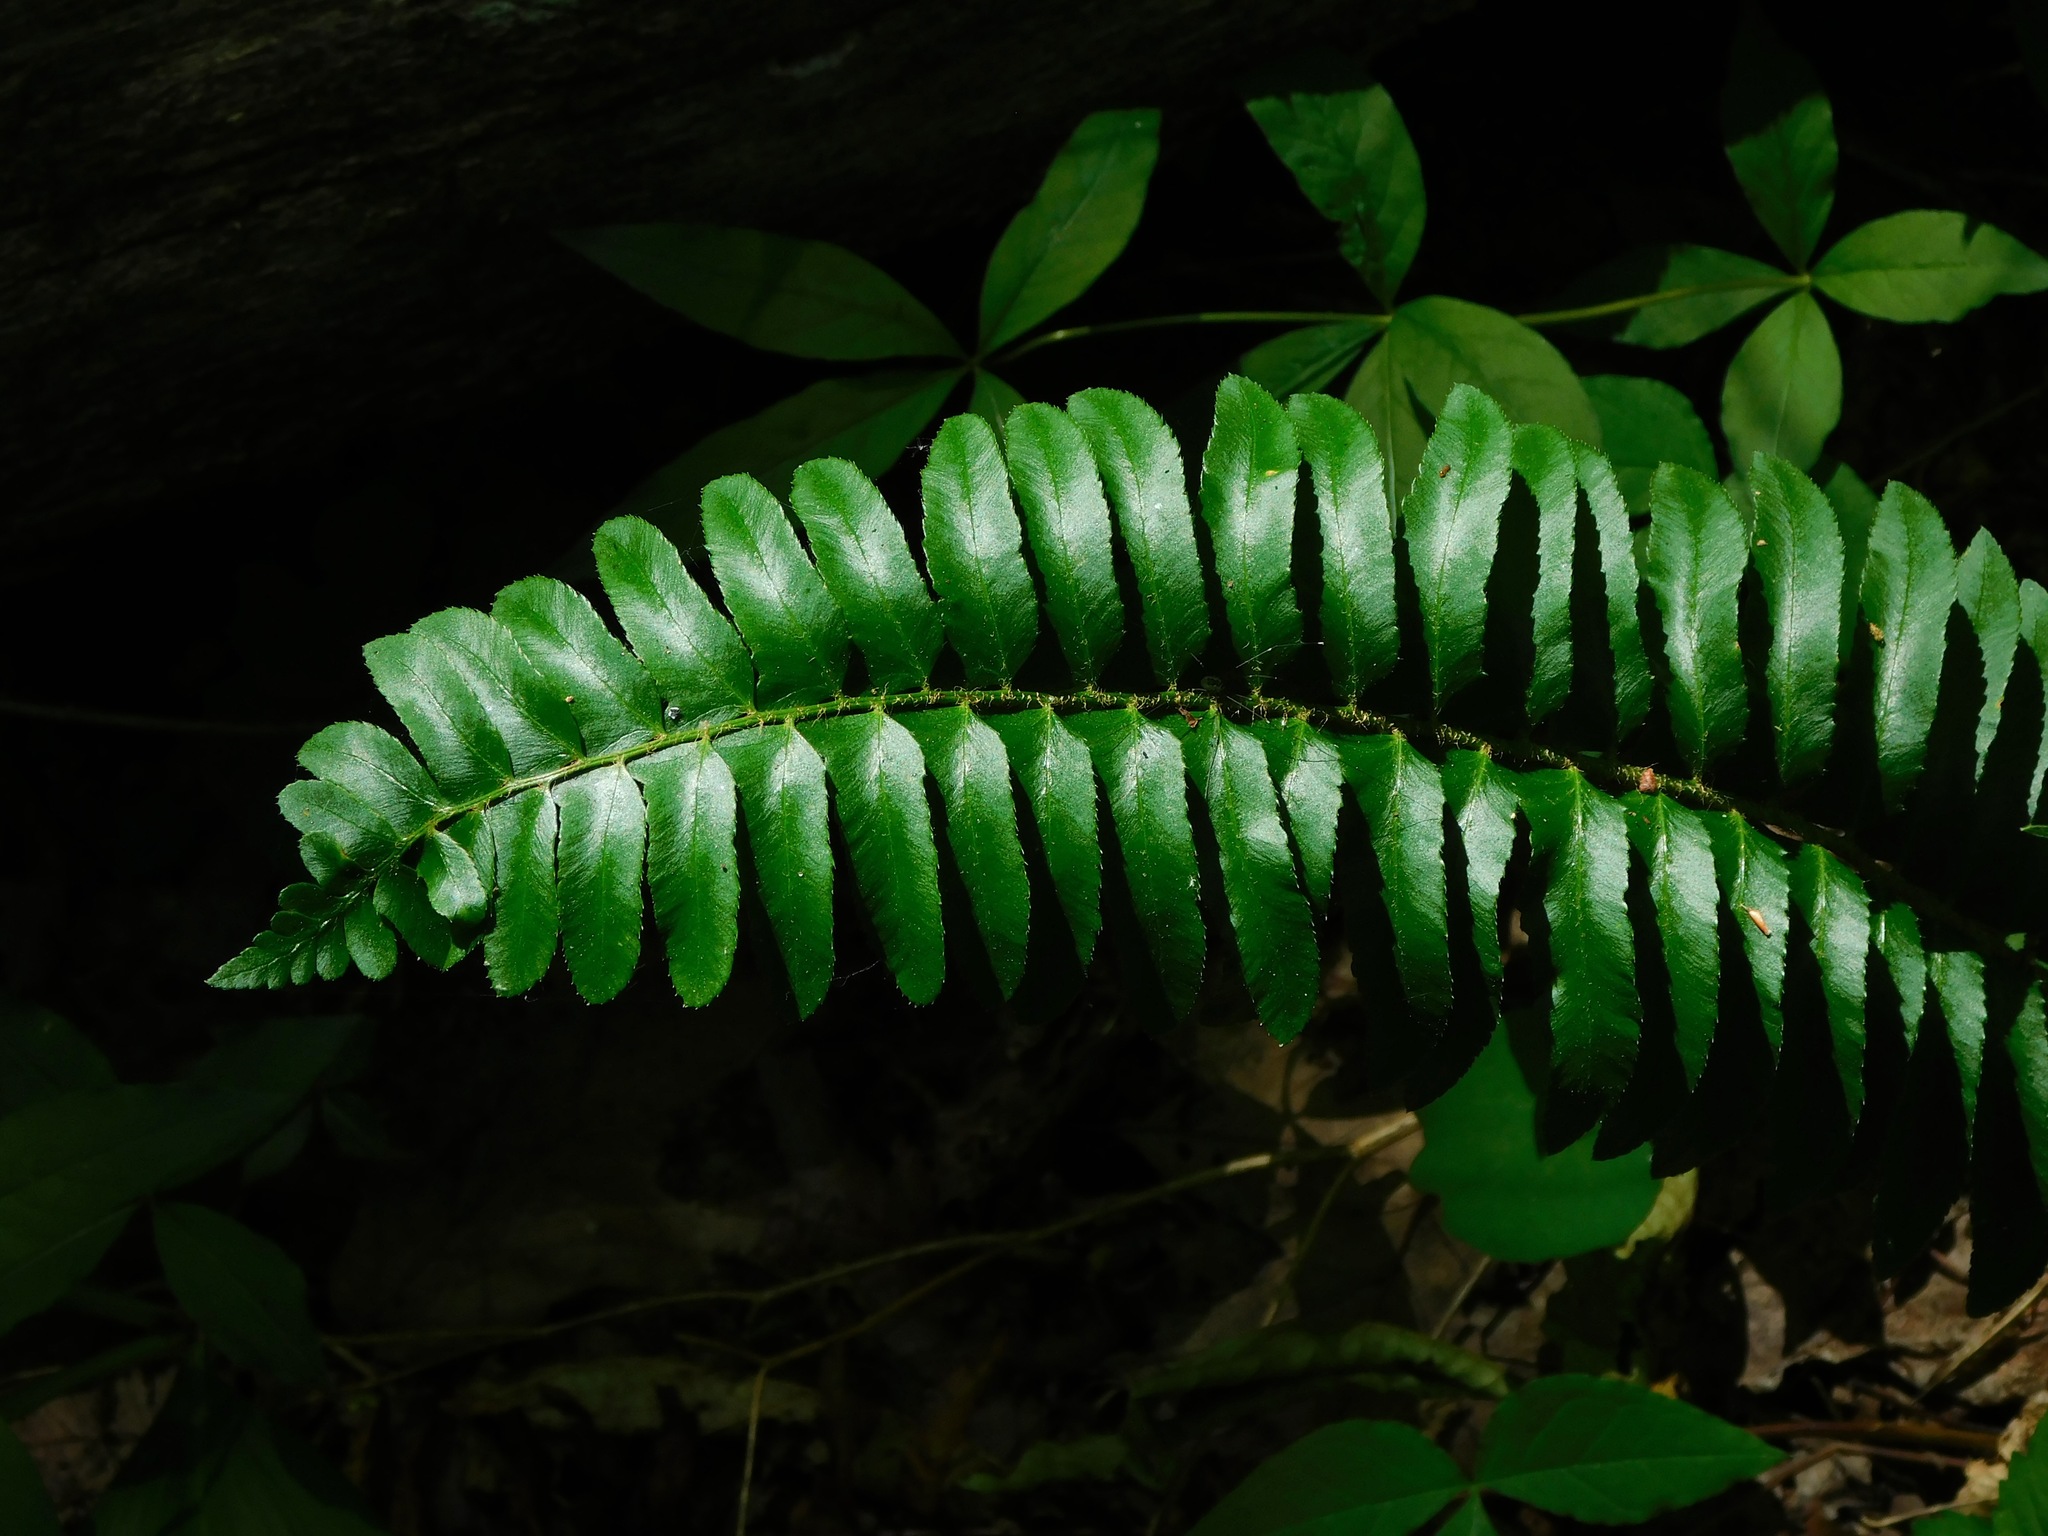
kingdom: Plantae
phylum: Tracheophyta
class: Polypodiopsida
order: Polypodiales
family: Dryopteridaceae
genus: Polystichum
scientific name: Polystichum acrostichoides
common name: Christmas fern
